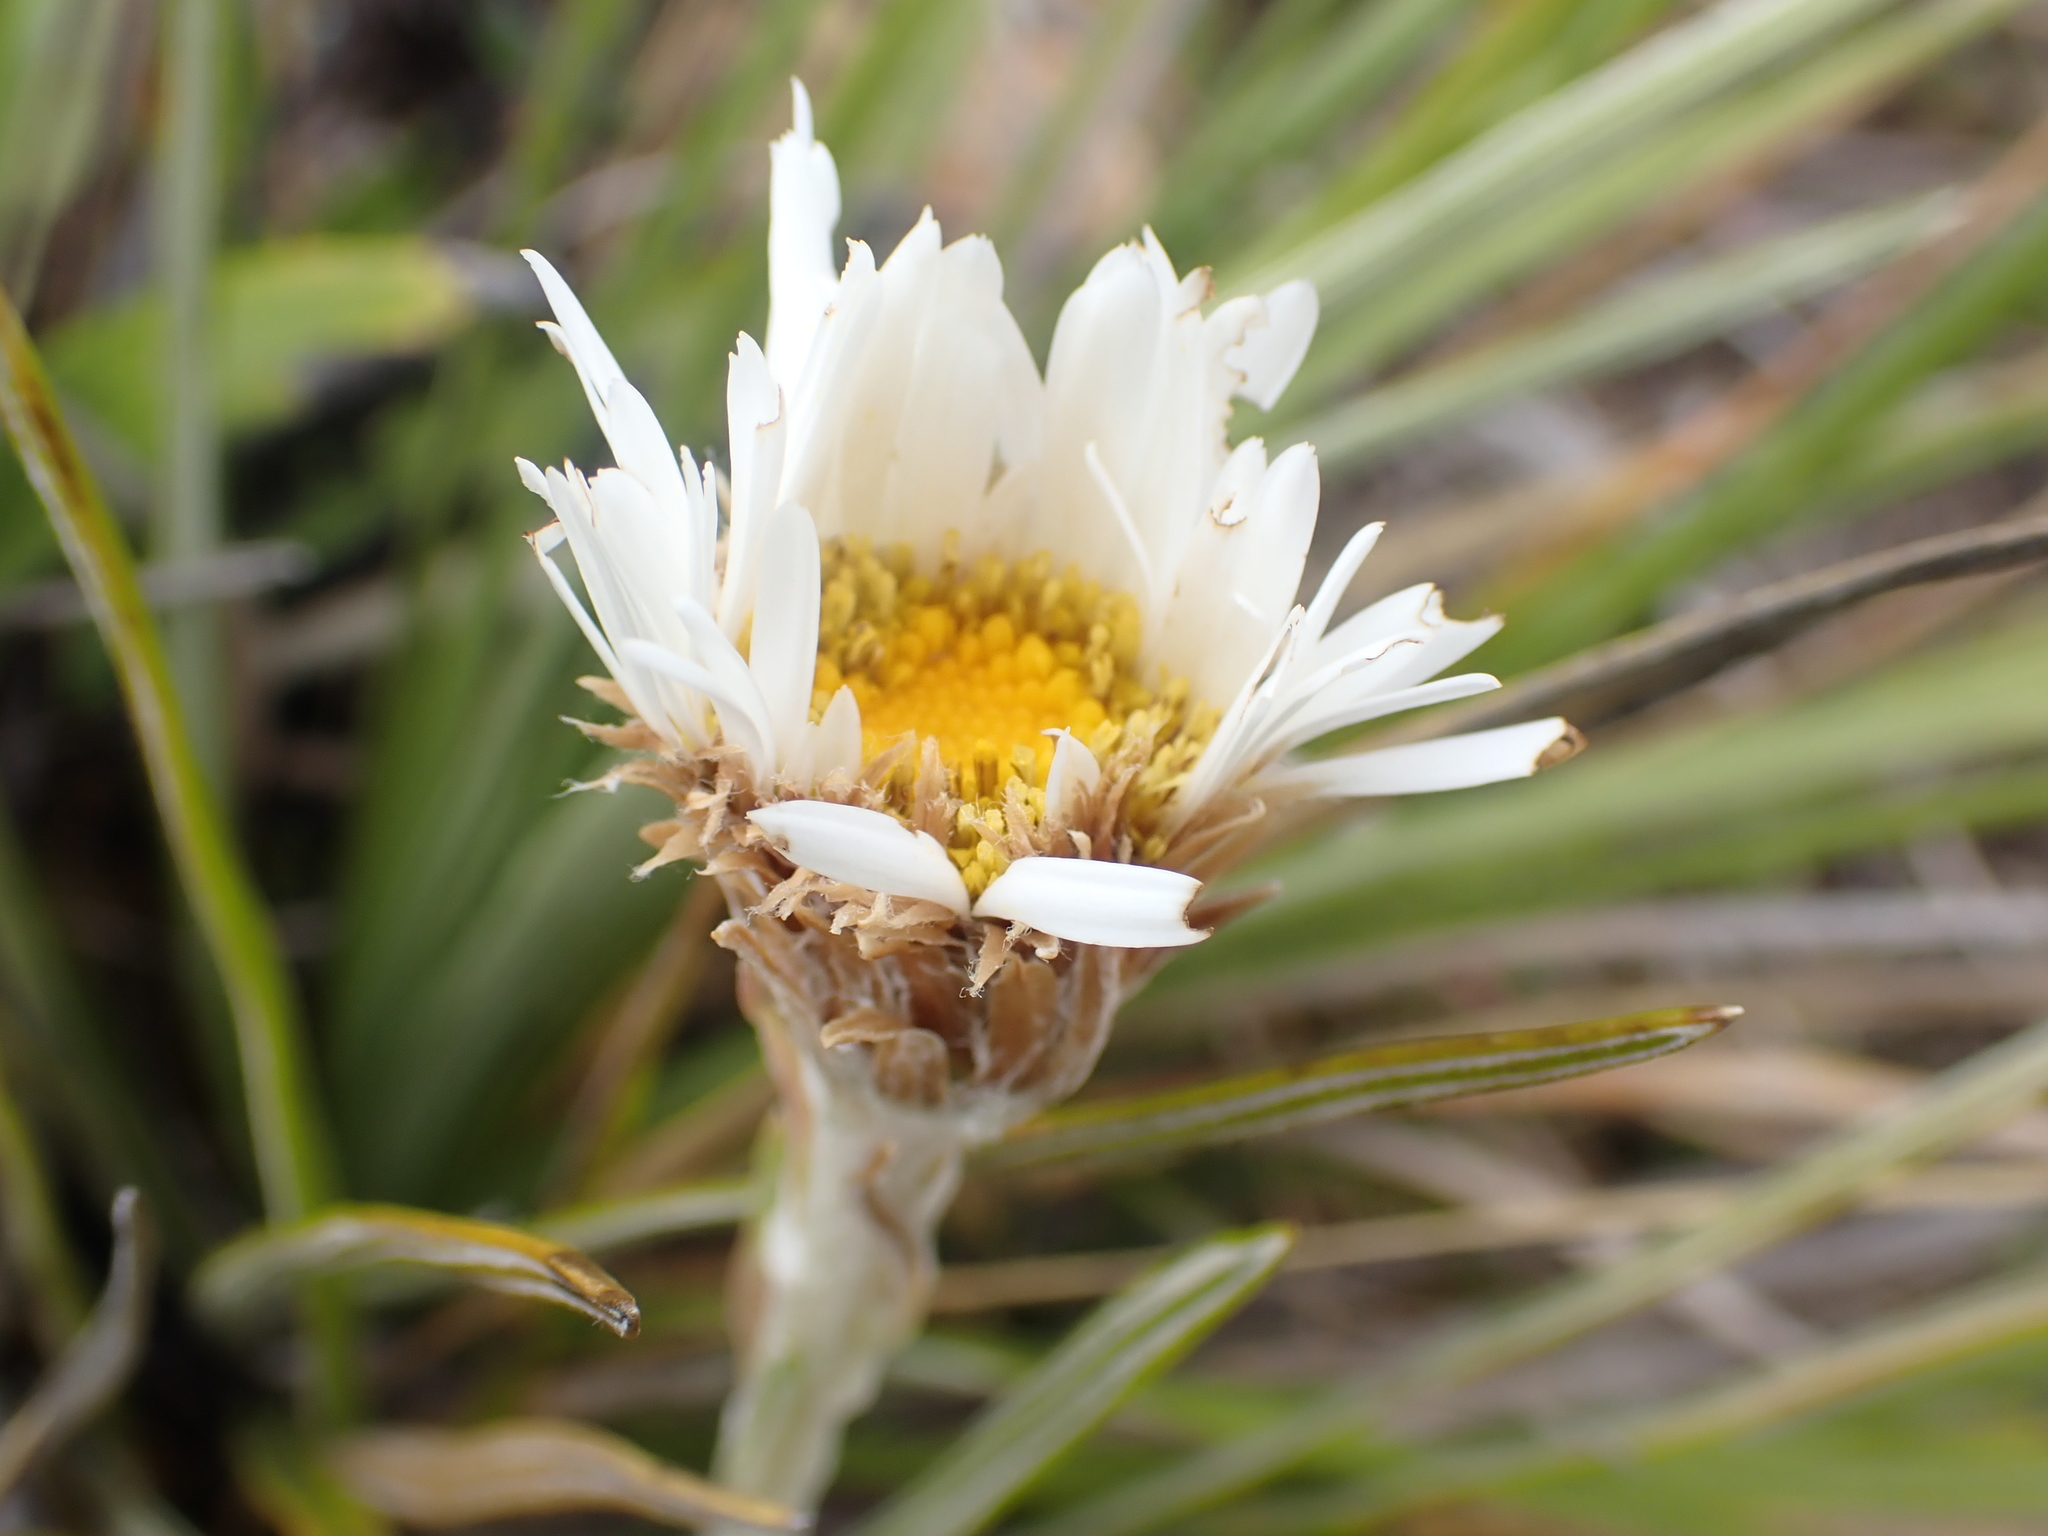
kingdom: Plantae
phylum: Tracheophyta
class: Magnoliopsida
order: Asterales
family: Asteraceae
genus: Celmisia
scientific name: Celmisia lyallii
